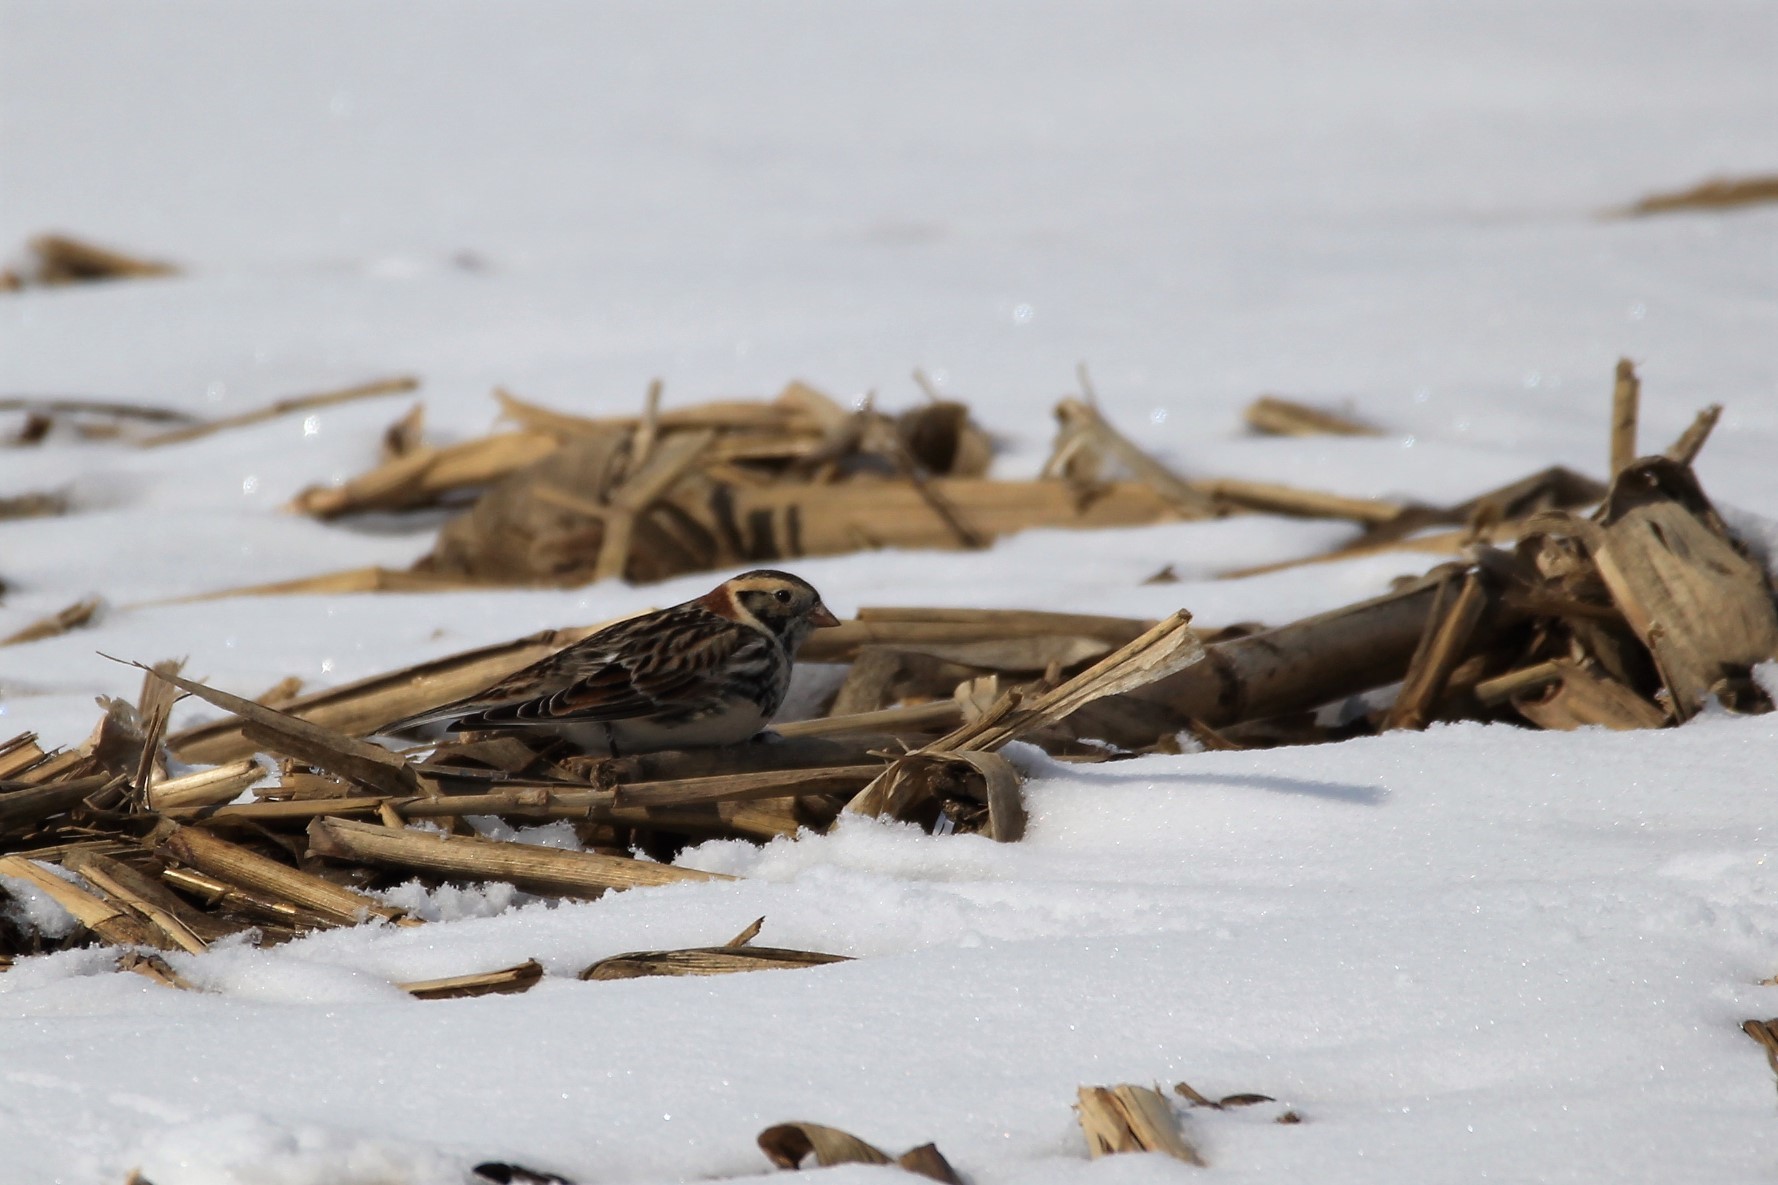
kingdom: Animalia
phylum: Chordata
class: Aves
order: Passeriformes
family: Calcariidae
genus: Calcarius
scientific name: Calcarius lapponicus
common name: Lapland longspur
